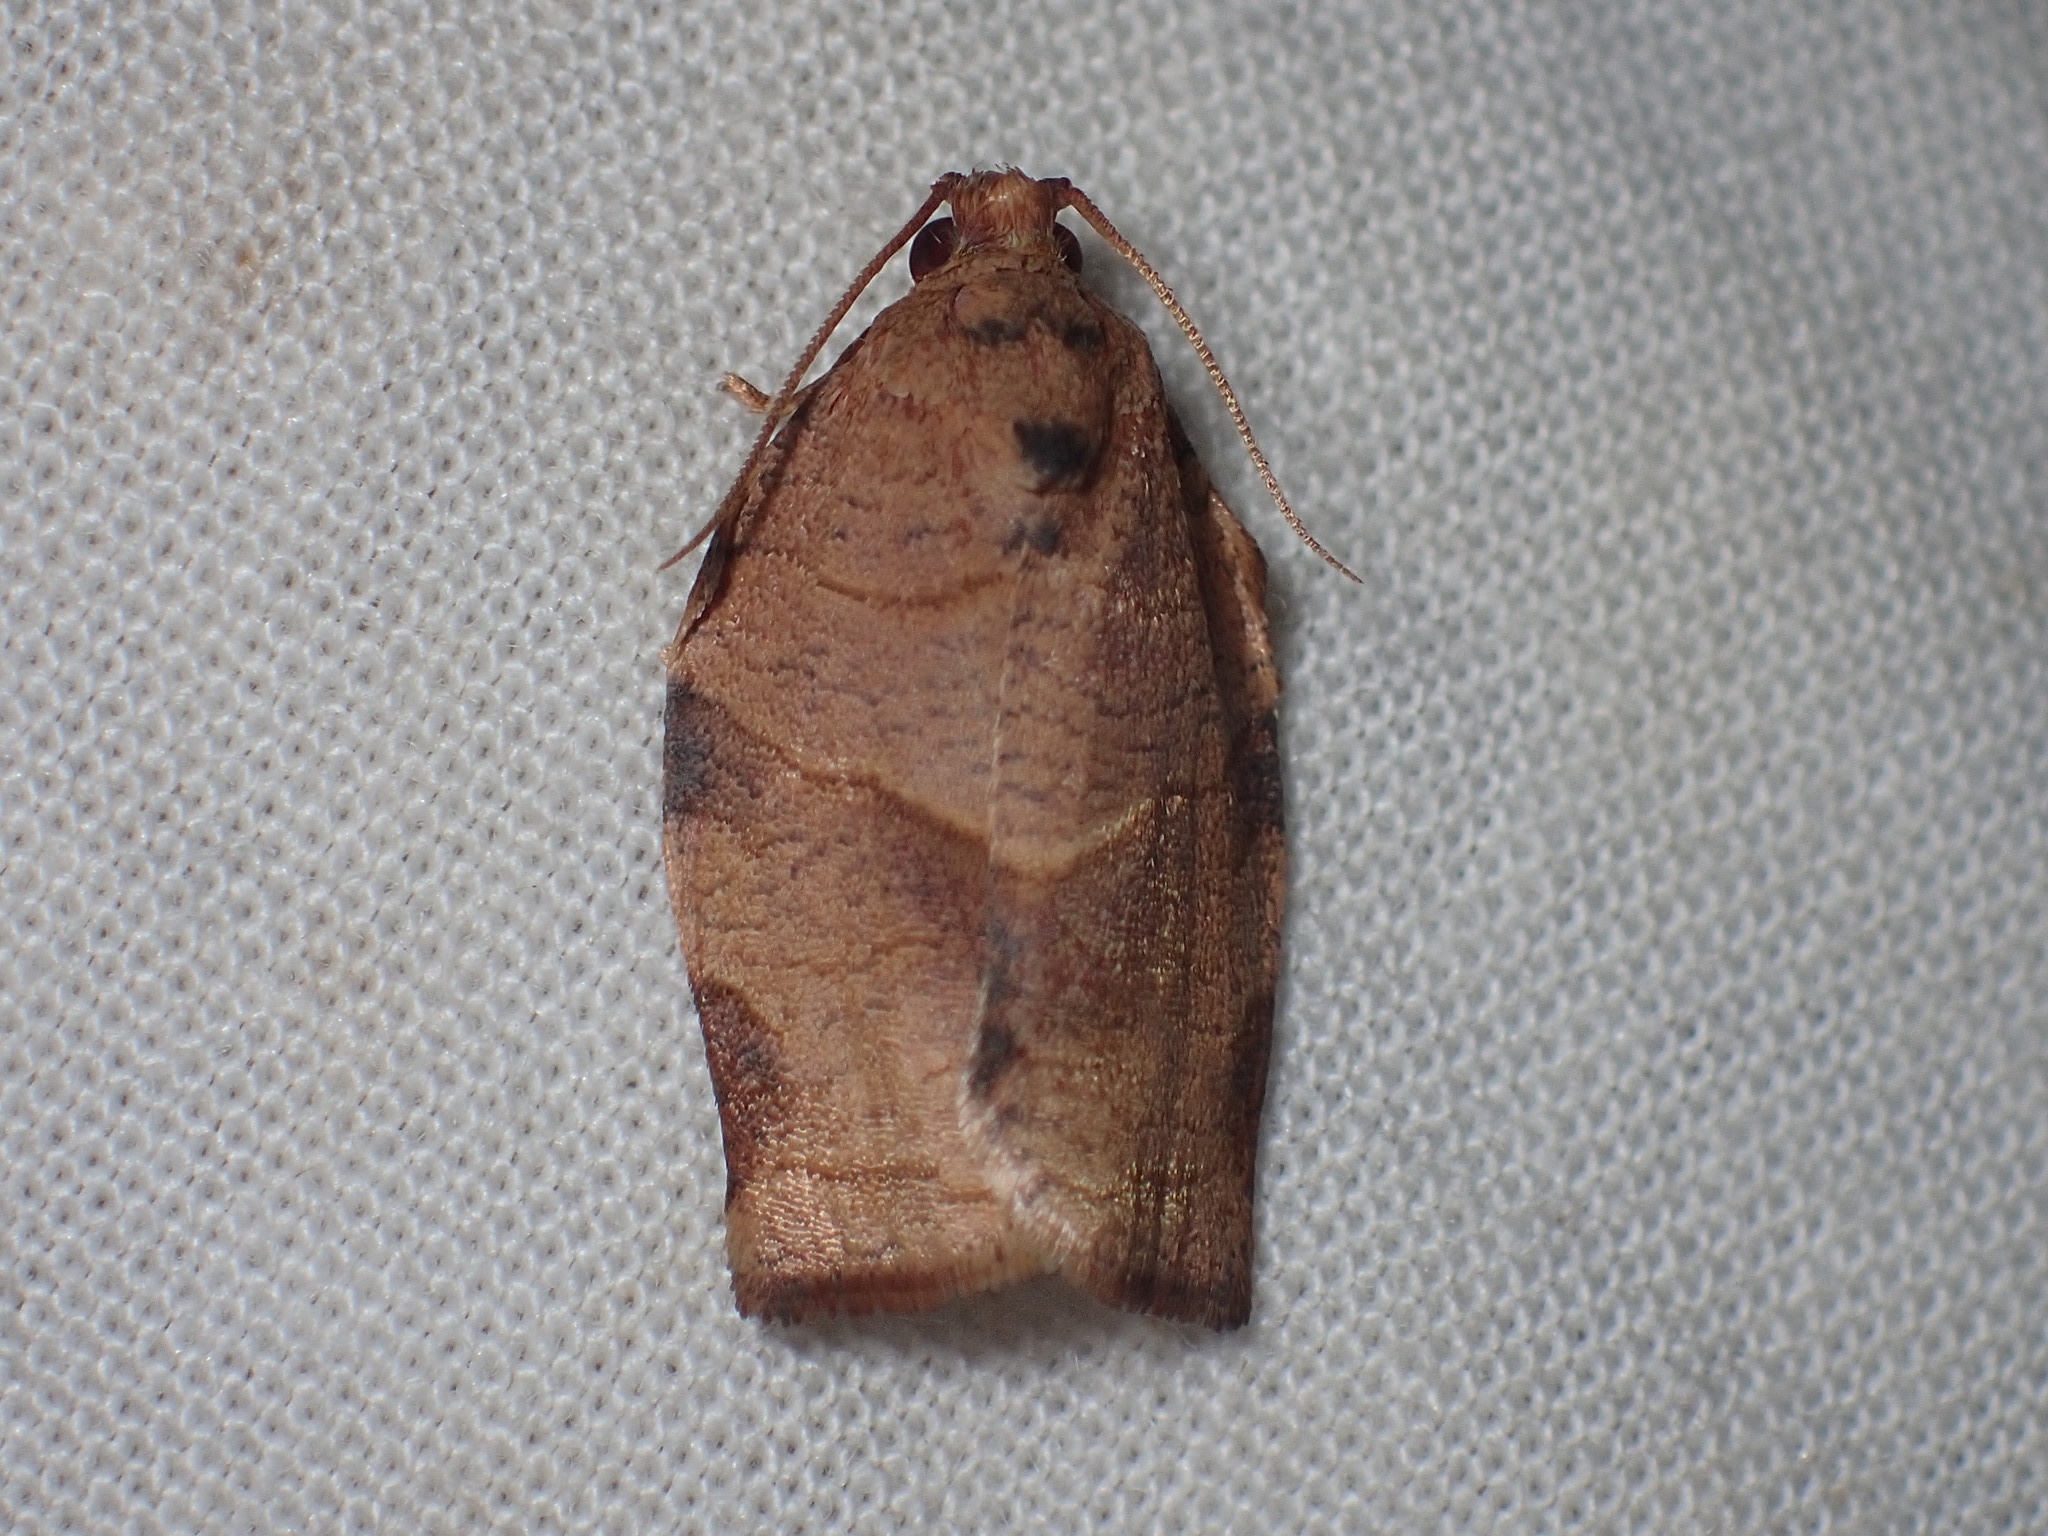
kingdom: Animalia
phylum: Arthropoda
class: Insecta
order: Lepidoptera
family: Tortricidae
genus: Choristoneura
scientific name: Choristoneura rosaceana
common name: Oblique-banded leafroller moth
